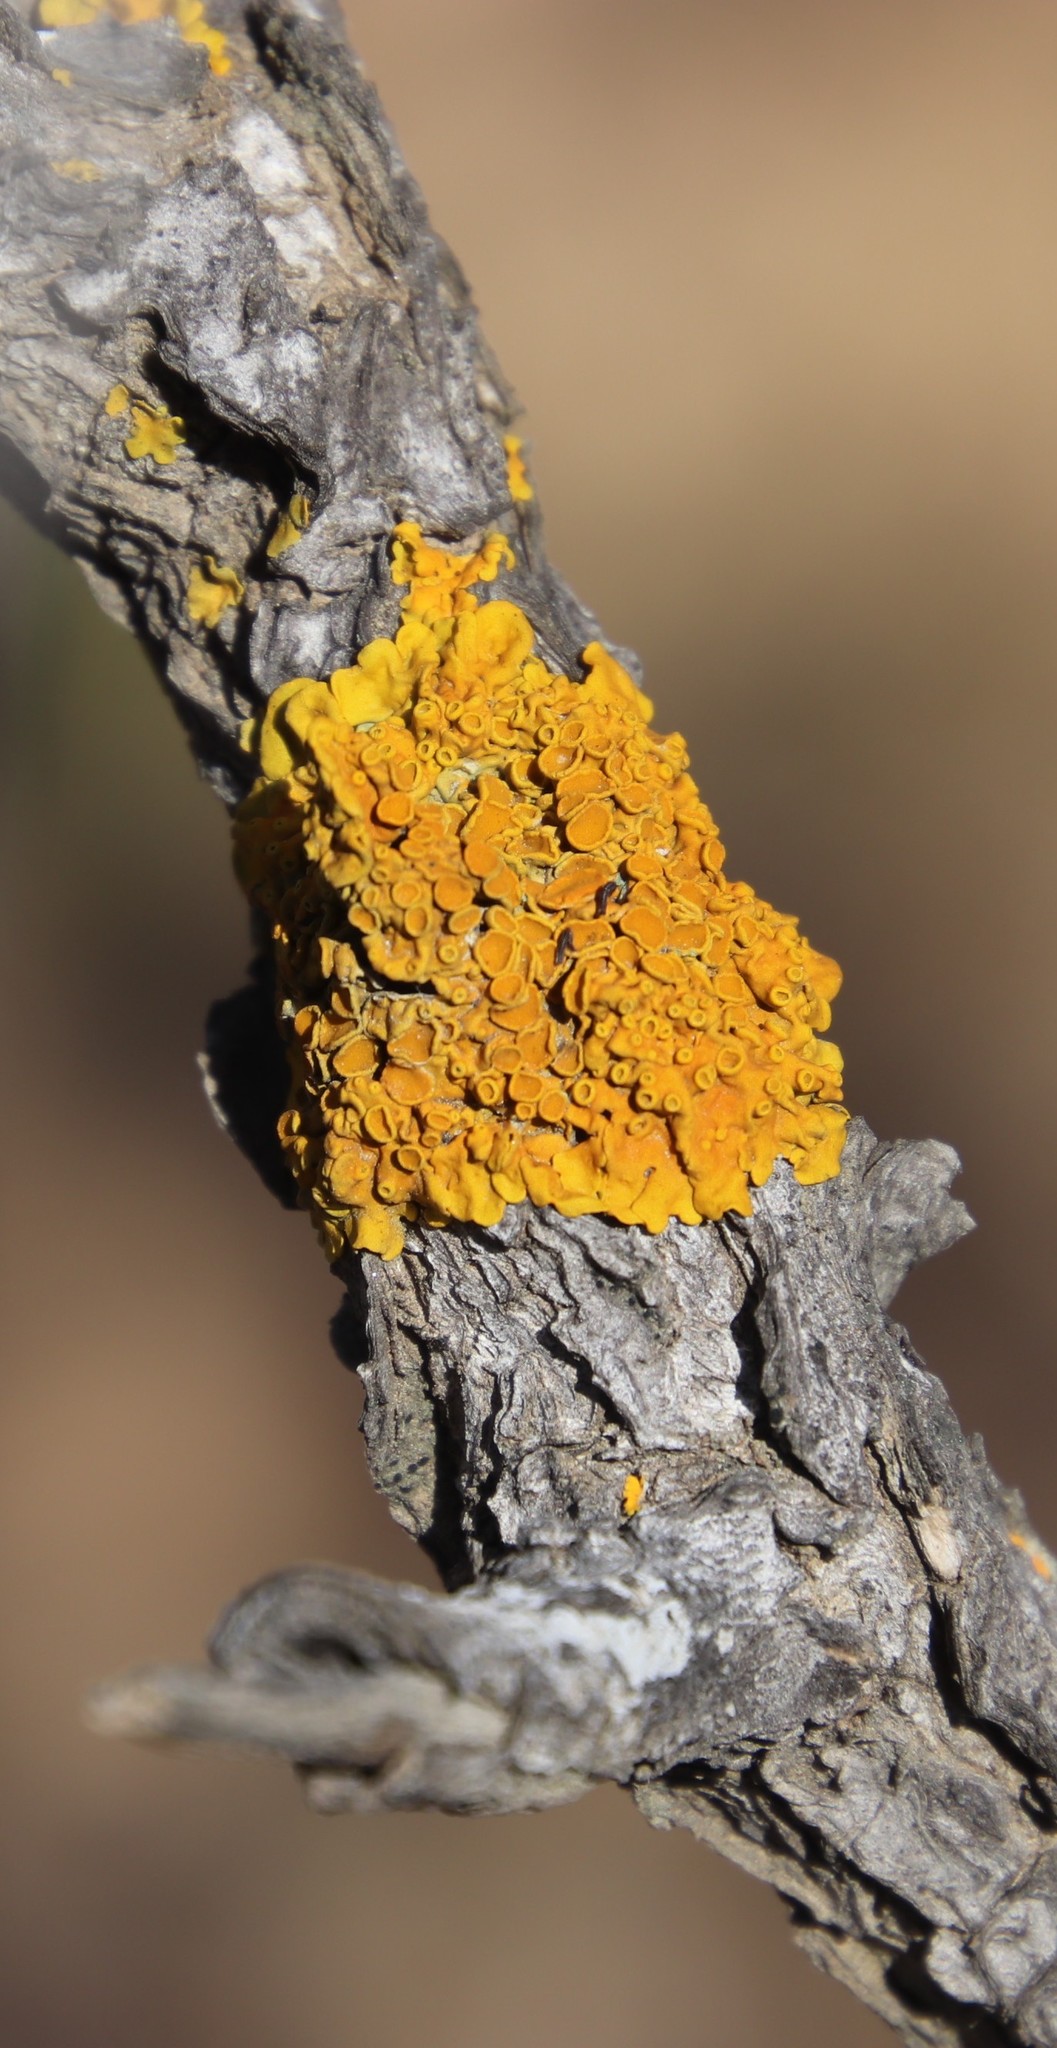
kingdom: Fungi
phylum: Ascomycota
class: Lecanoromycetes
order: Teloschistales
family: Teloschistaceae
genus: Xanthoria
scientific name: Xanthoria parietina
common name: Common orange lichen
